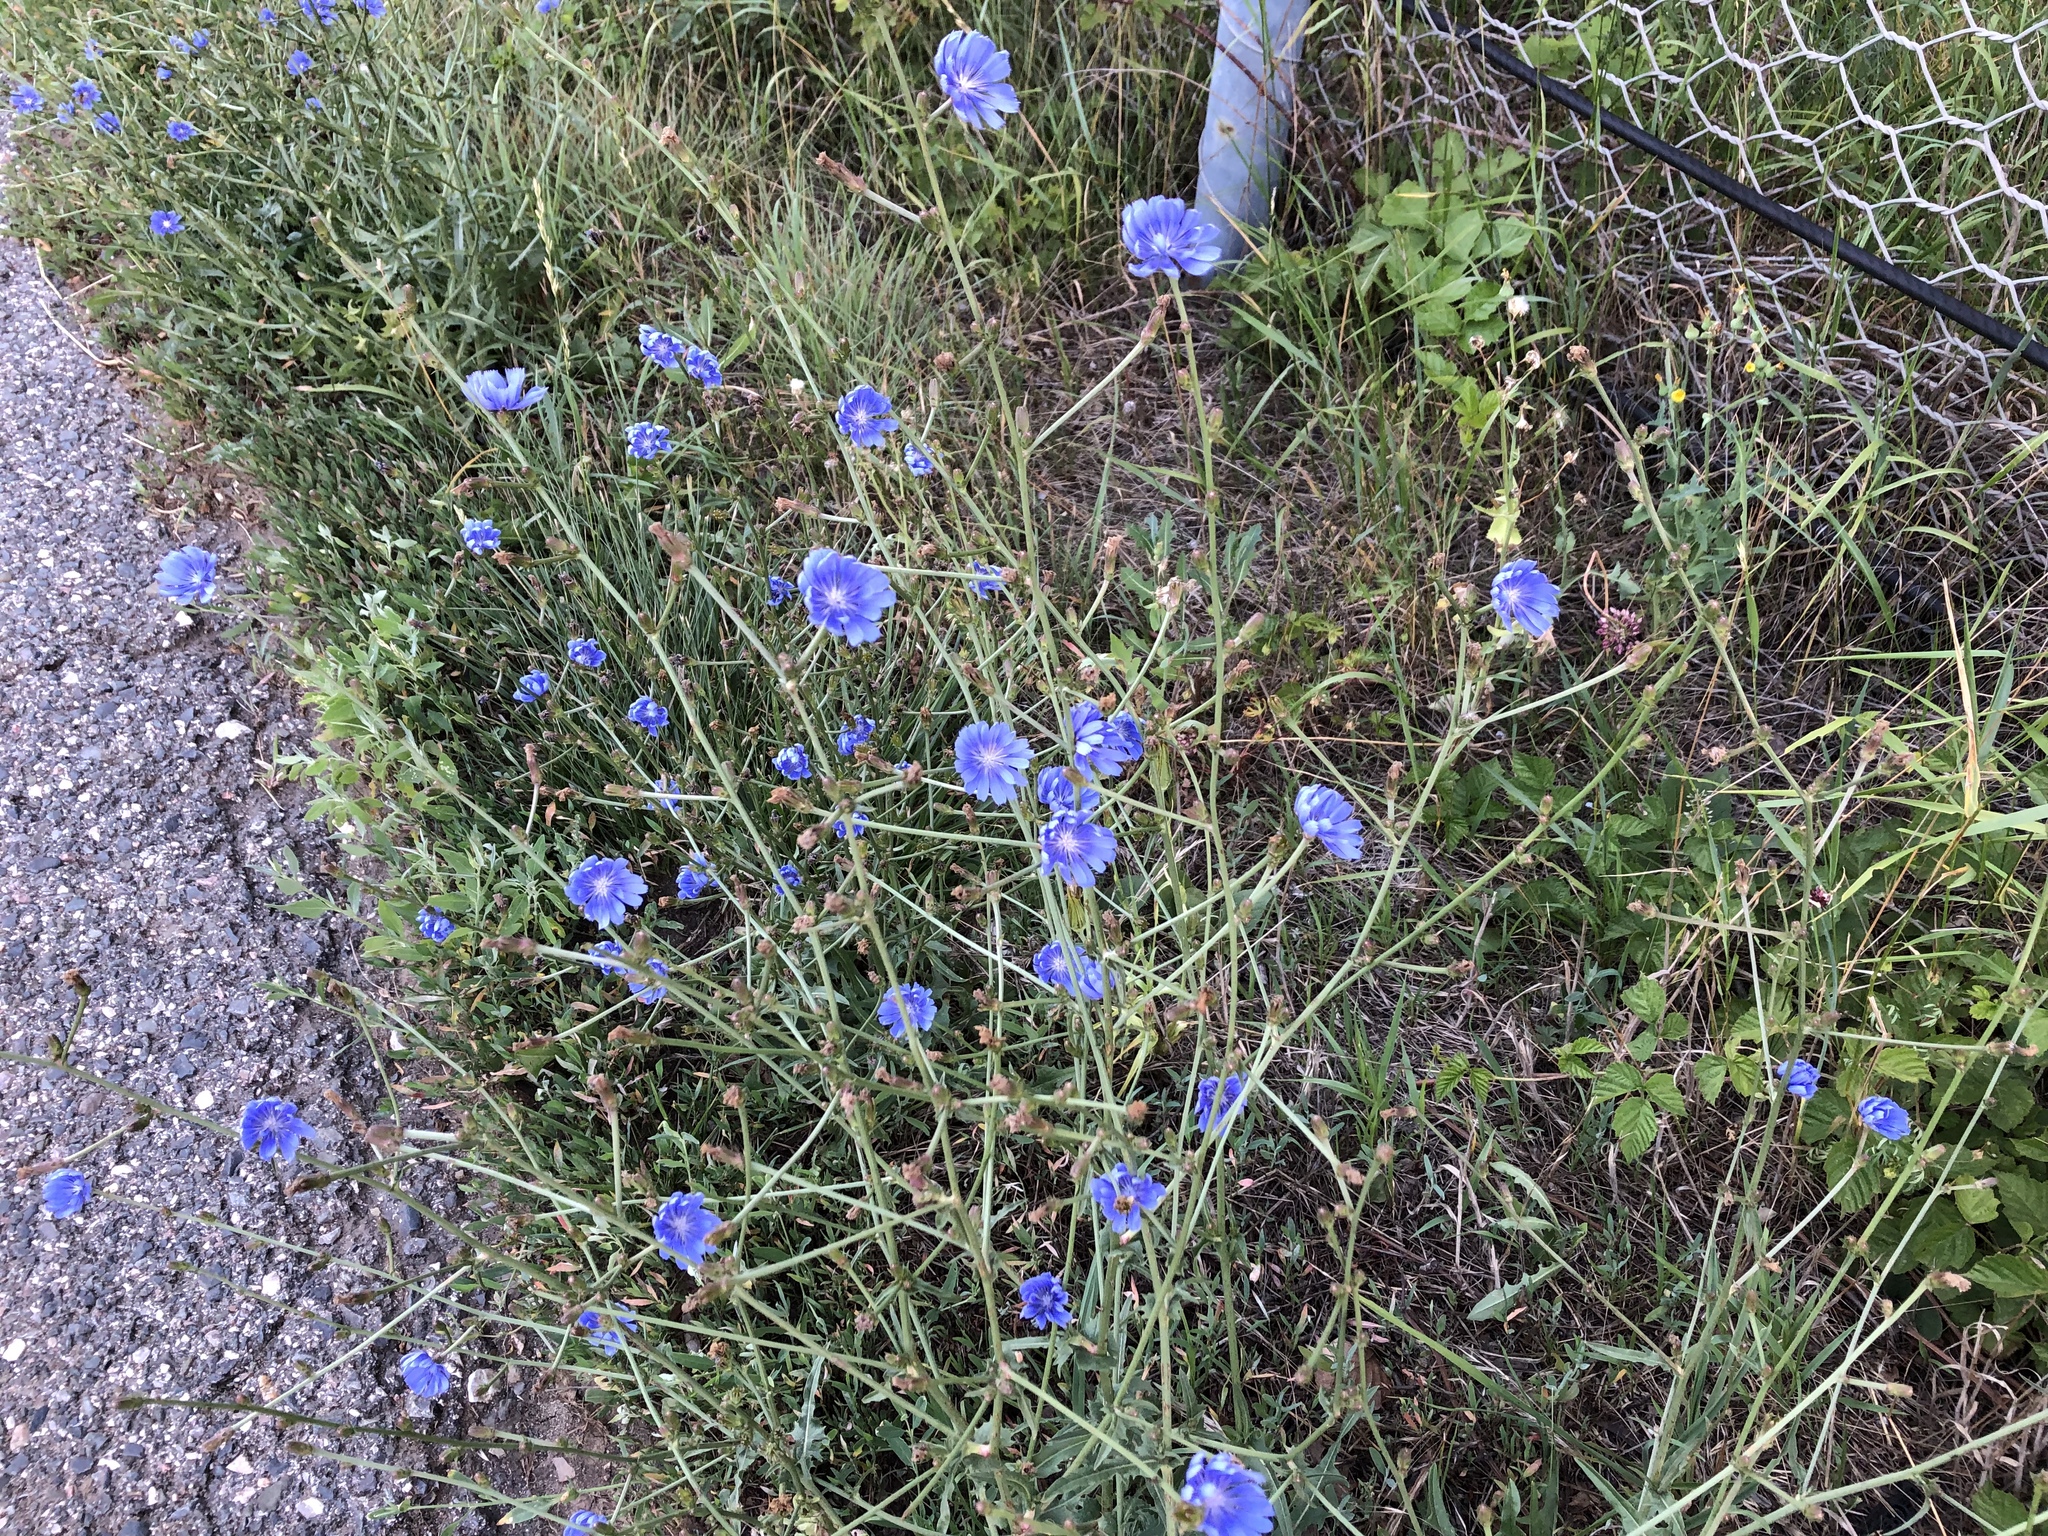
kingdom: Plantae
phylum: Tracheophyta
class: Magnoliopsida
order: Asterales
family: Asteraceae
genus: Cichorium
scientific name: Cichorium intybus
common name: Chicory
